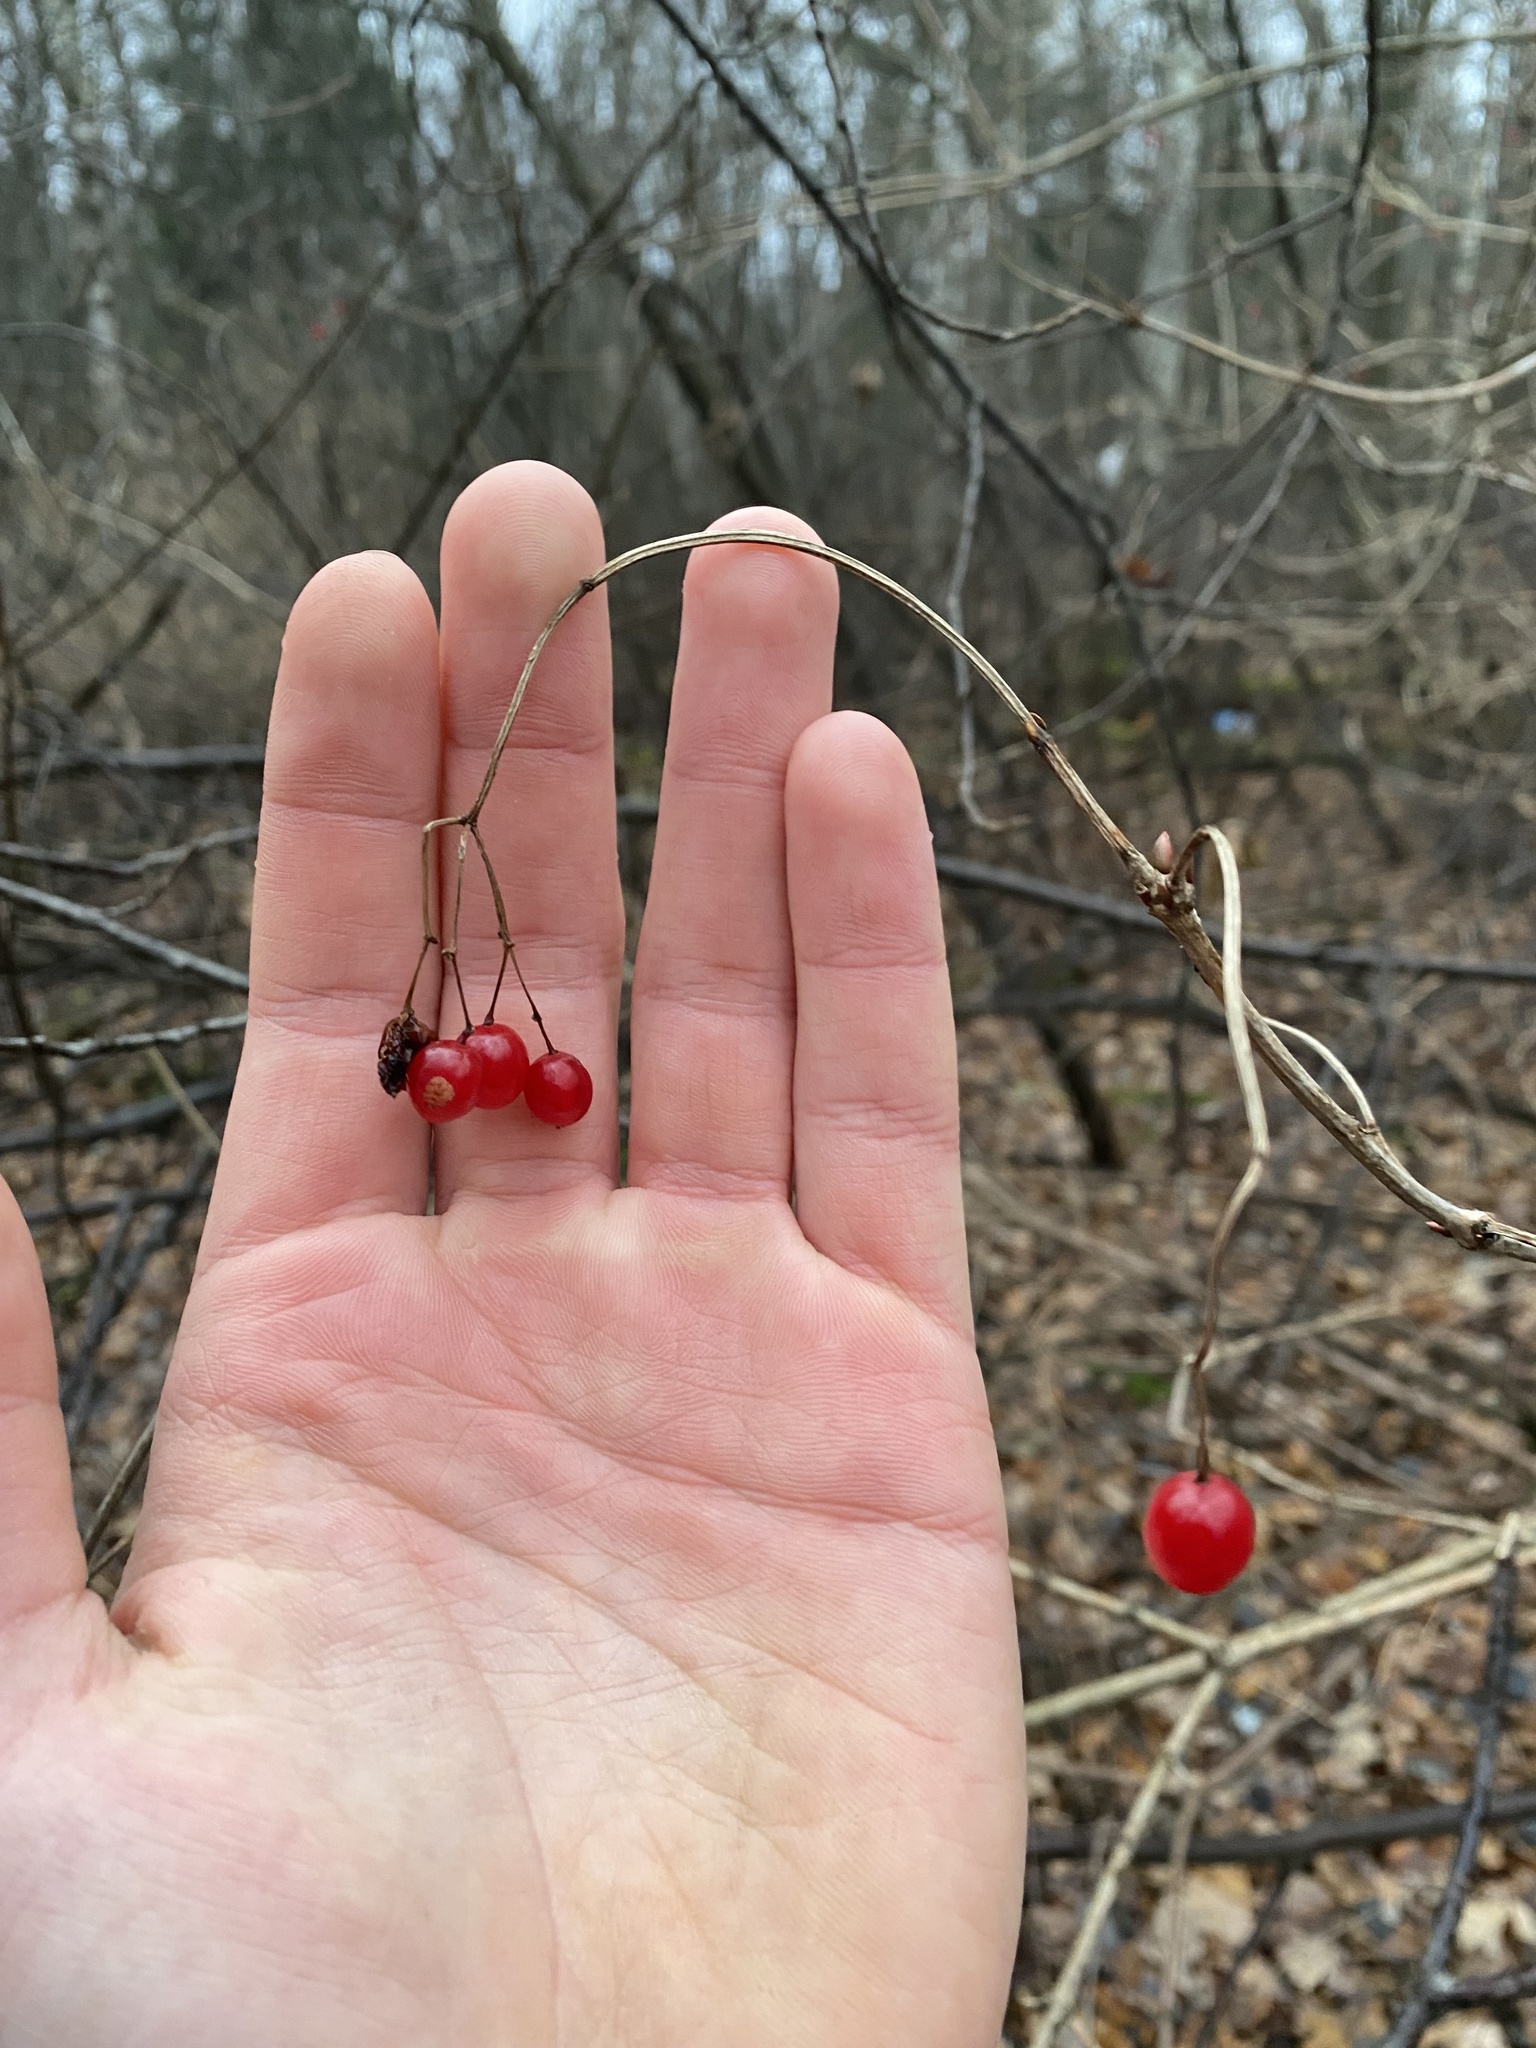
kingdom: Plantae
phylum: Tracheophyta
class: Magnoliopsida
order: Dipsacales
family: Viburnaceae
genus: Viburnum
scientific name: Viburnum opulus
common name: Guelder-rose
